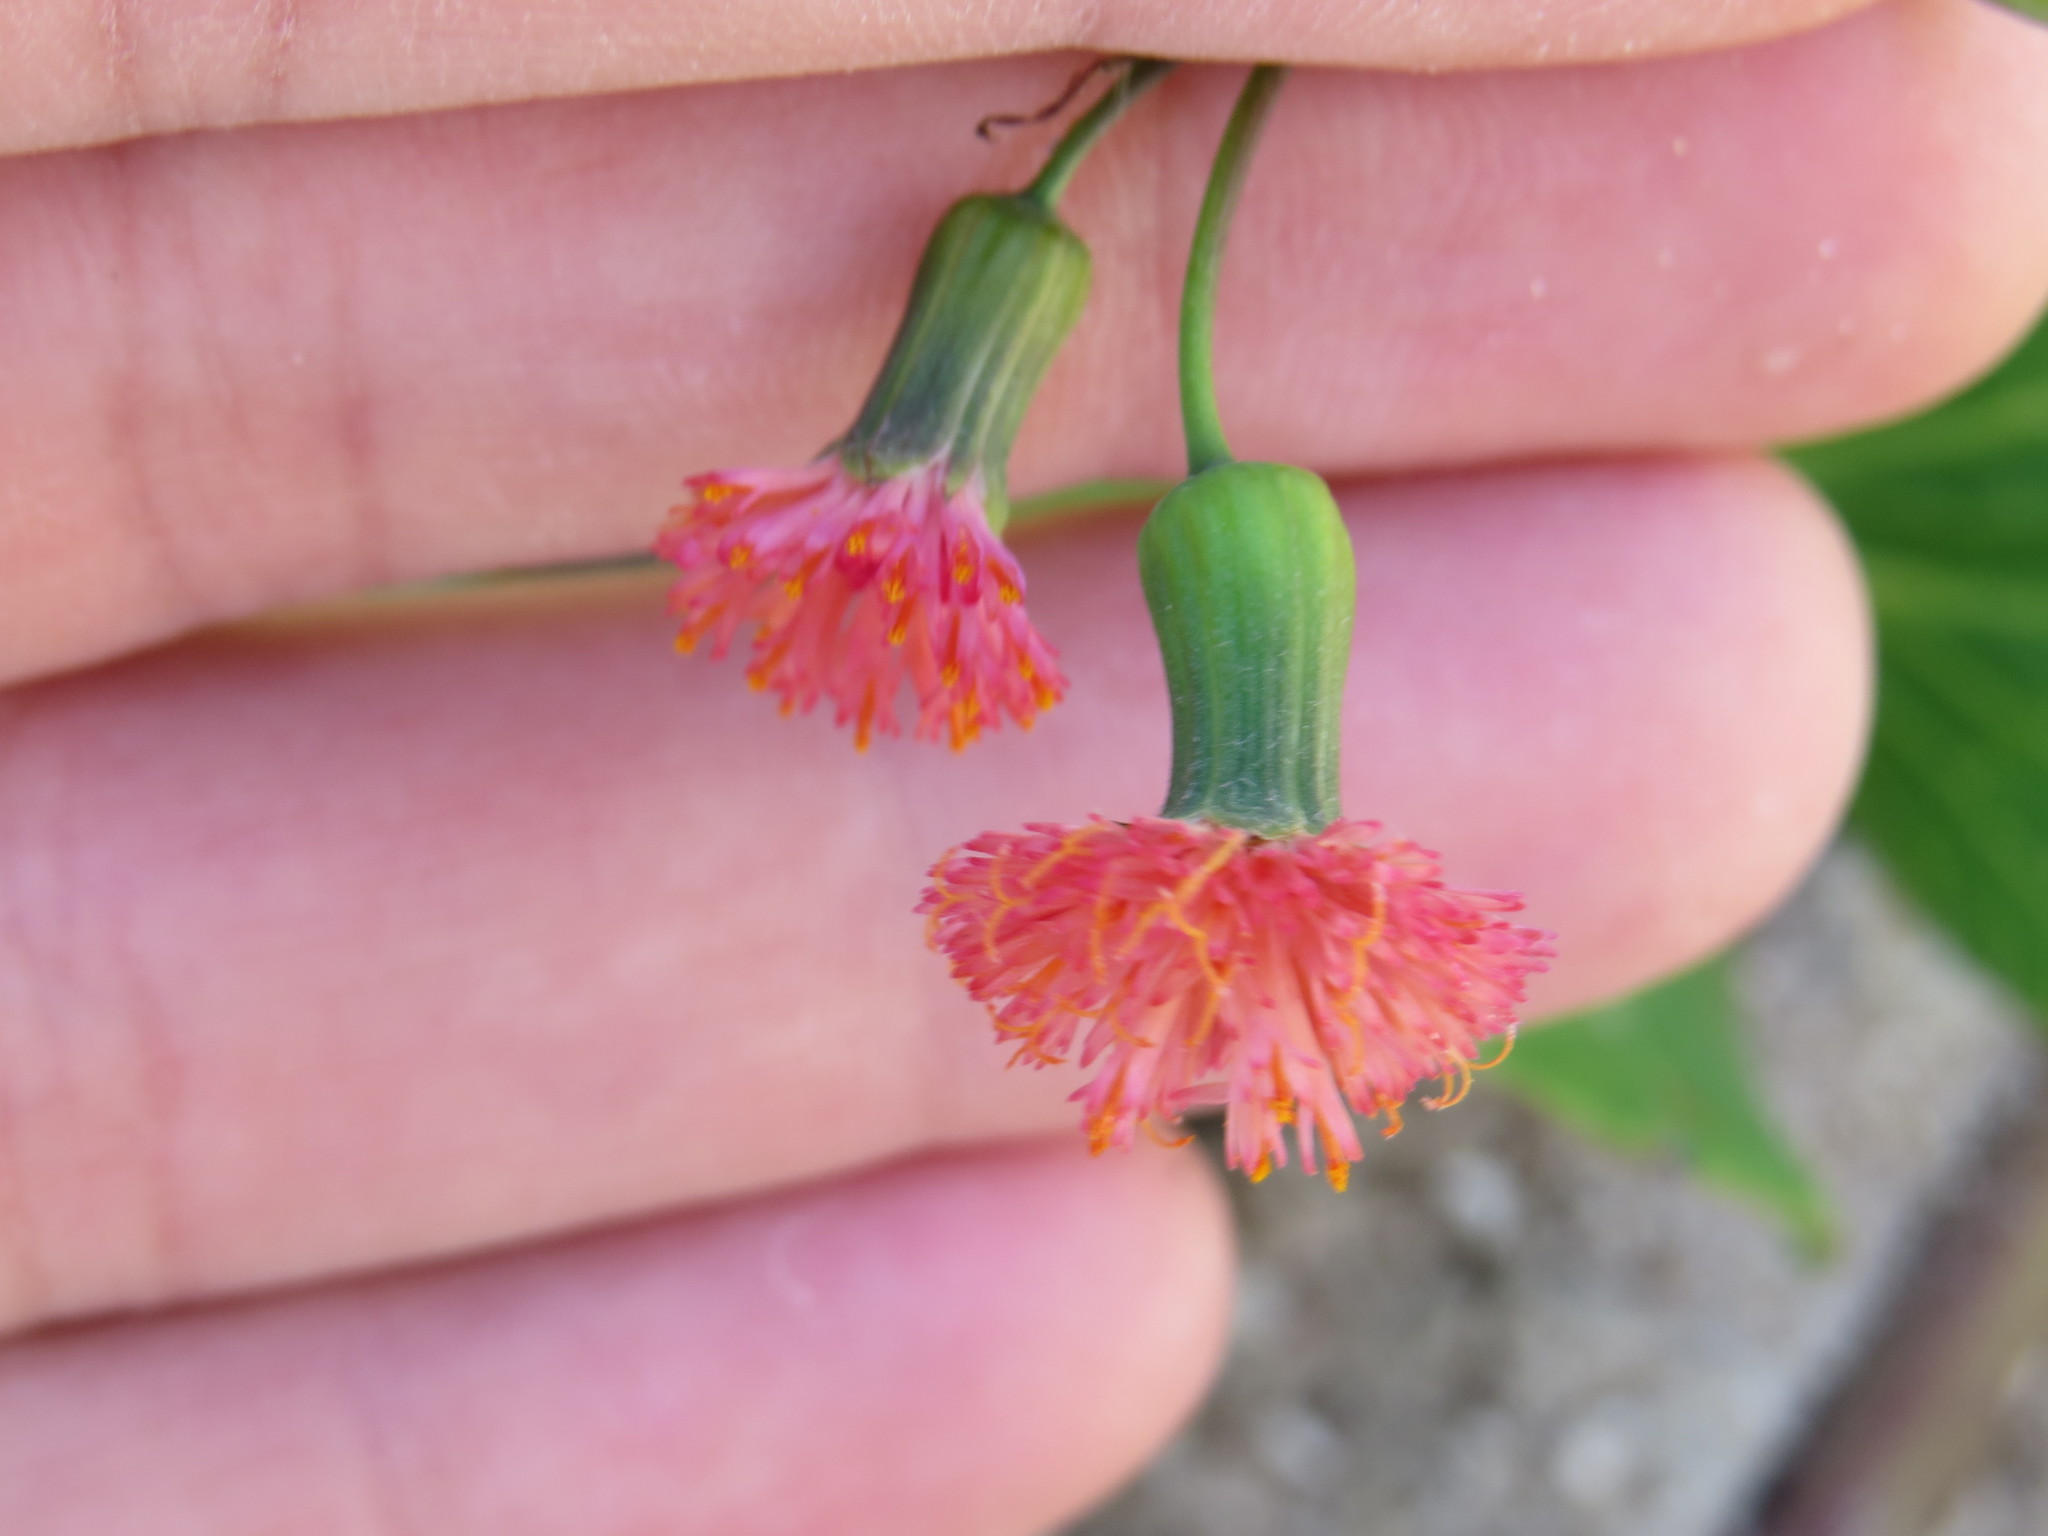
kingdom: Plantae
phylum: Tracheophyta
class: Magnoliopsida
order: Asterales
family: Asteraceae
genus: Emilia
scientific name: Emilia fosbergii
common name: Florida tasselflower
